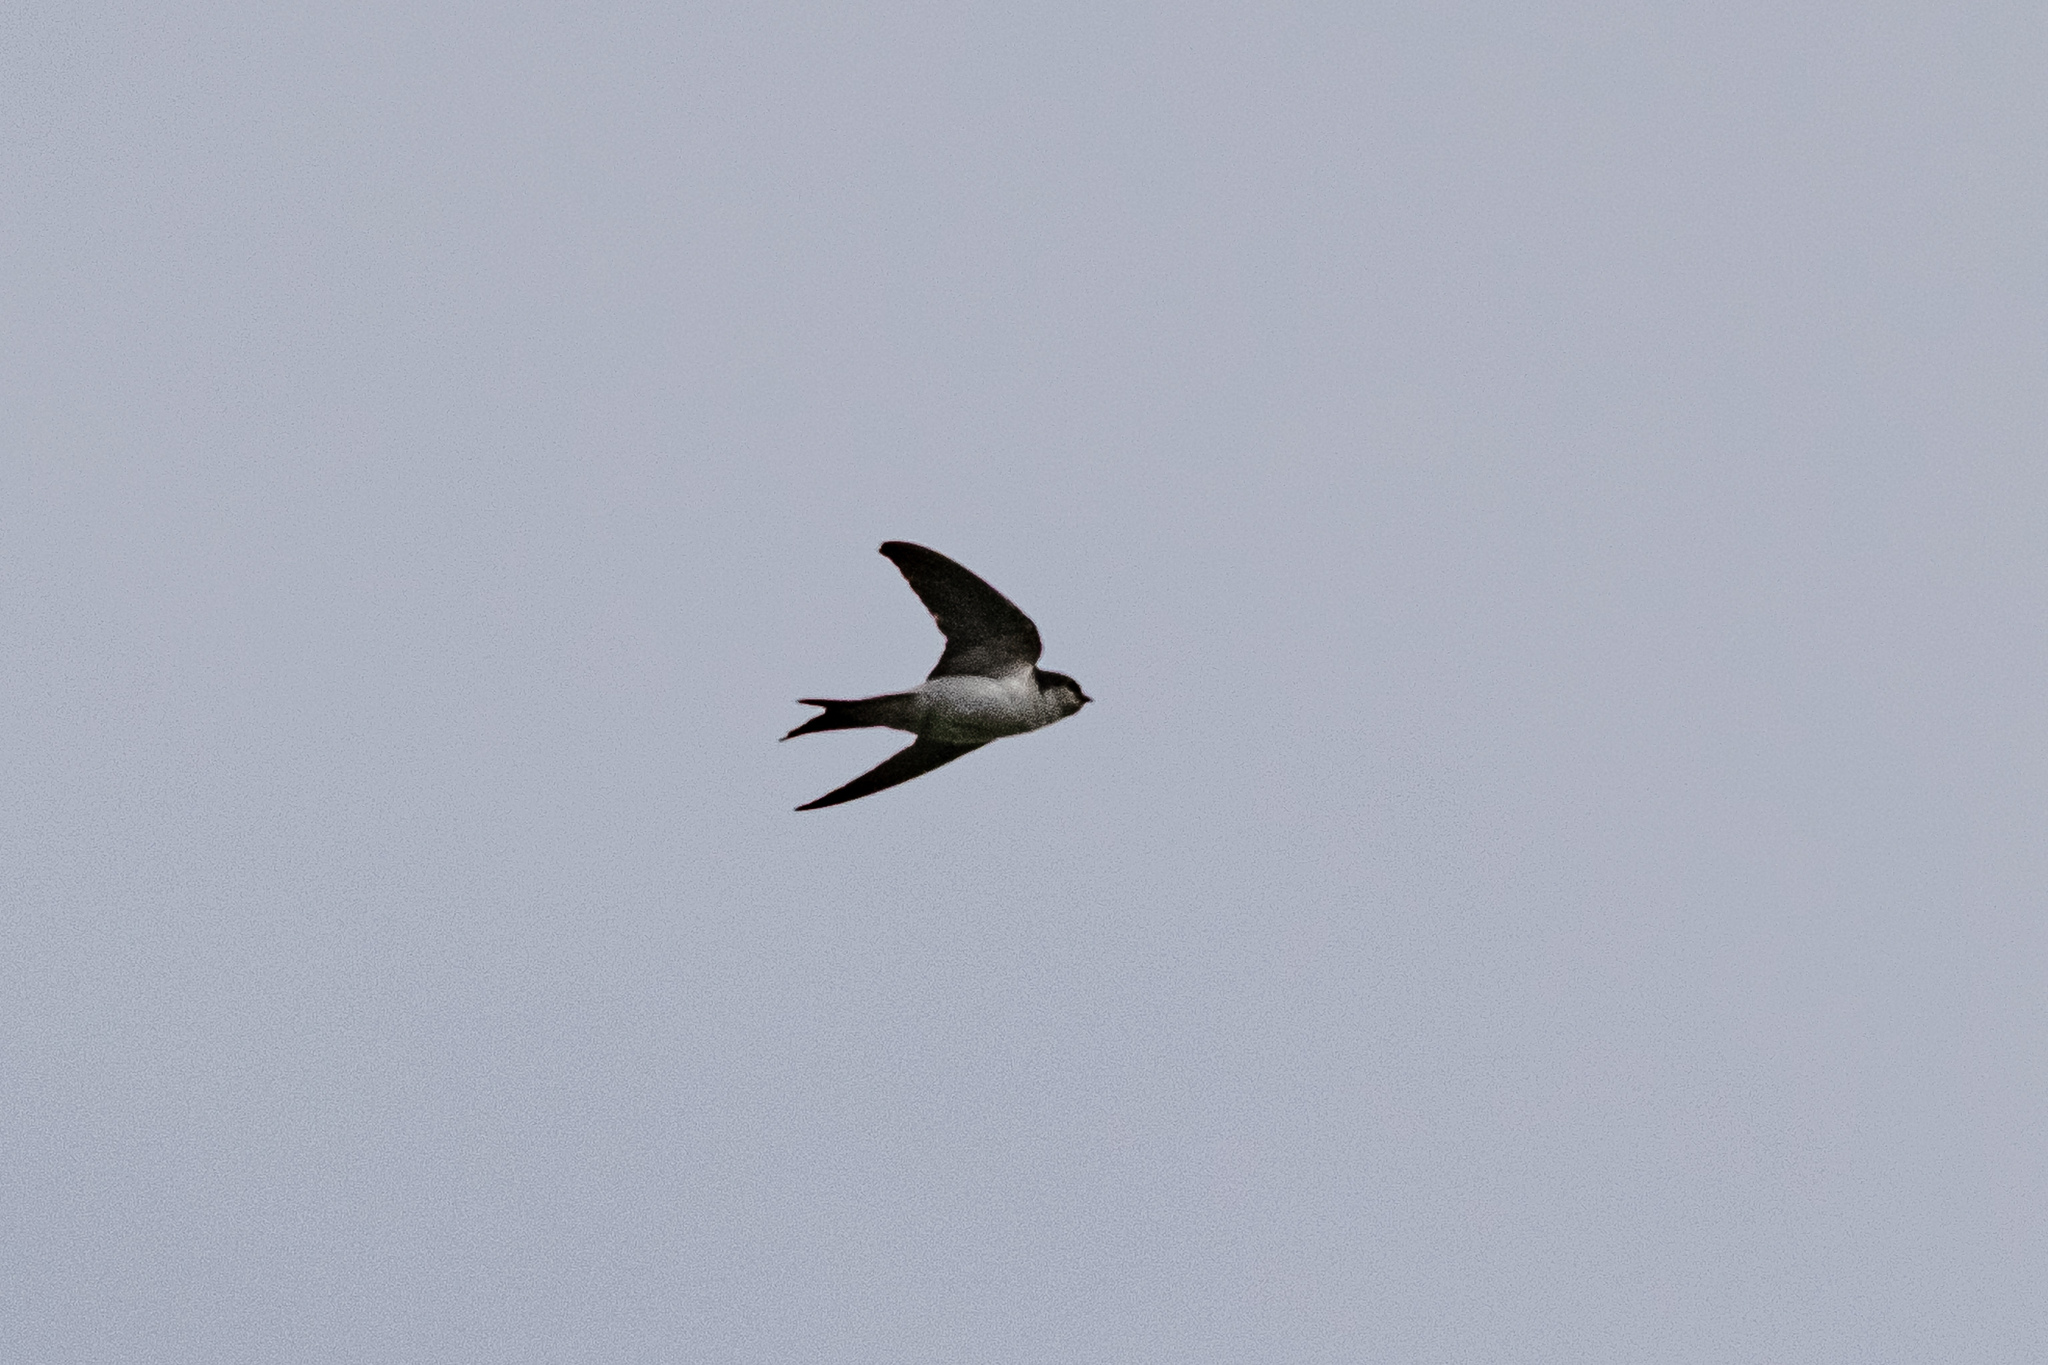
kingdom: Animalia
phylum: Chordata
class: Aves
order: Passeriformes
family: Hirundinidae
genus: Delichon
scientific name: Delichon urbicum
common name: Common house martin
